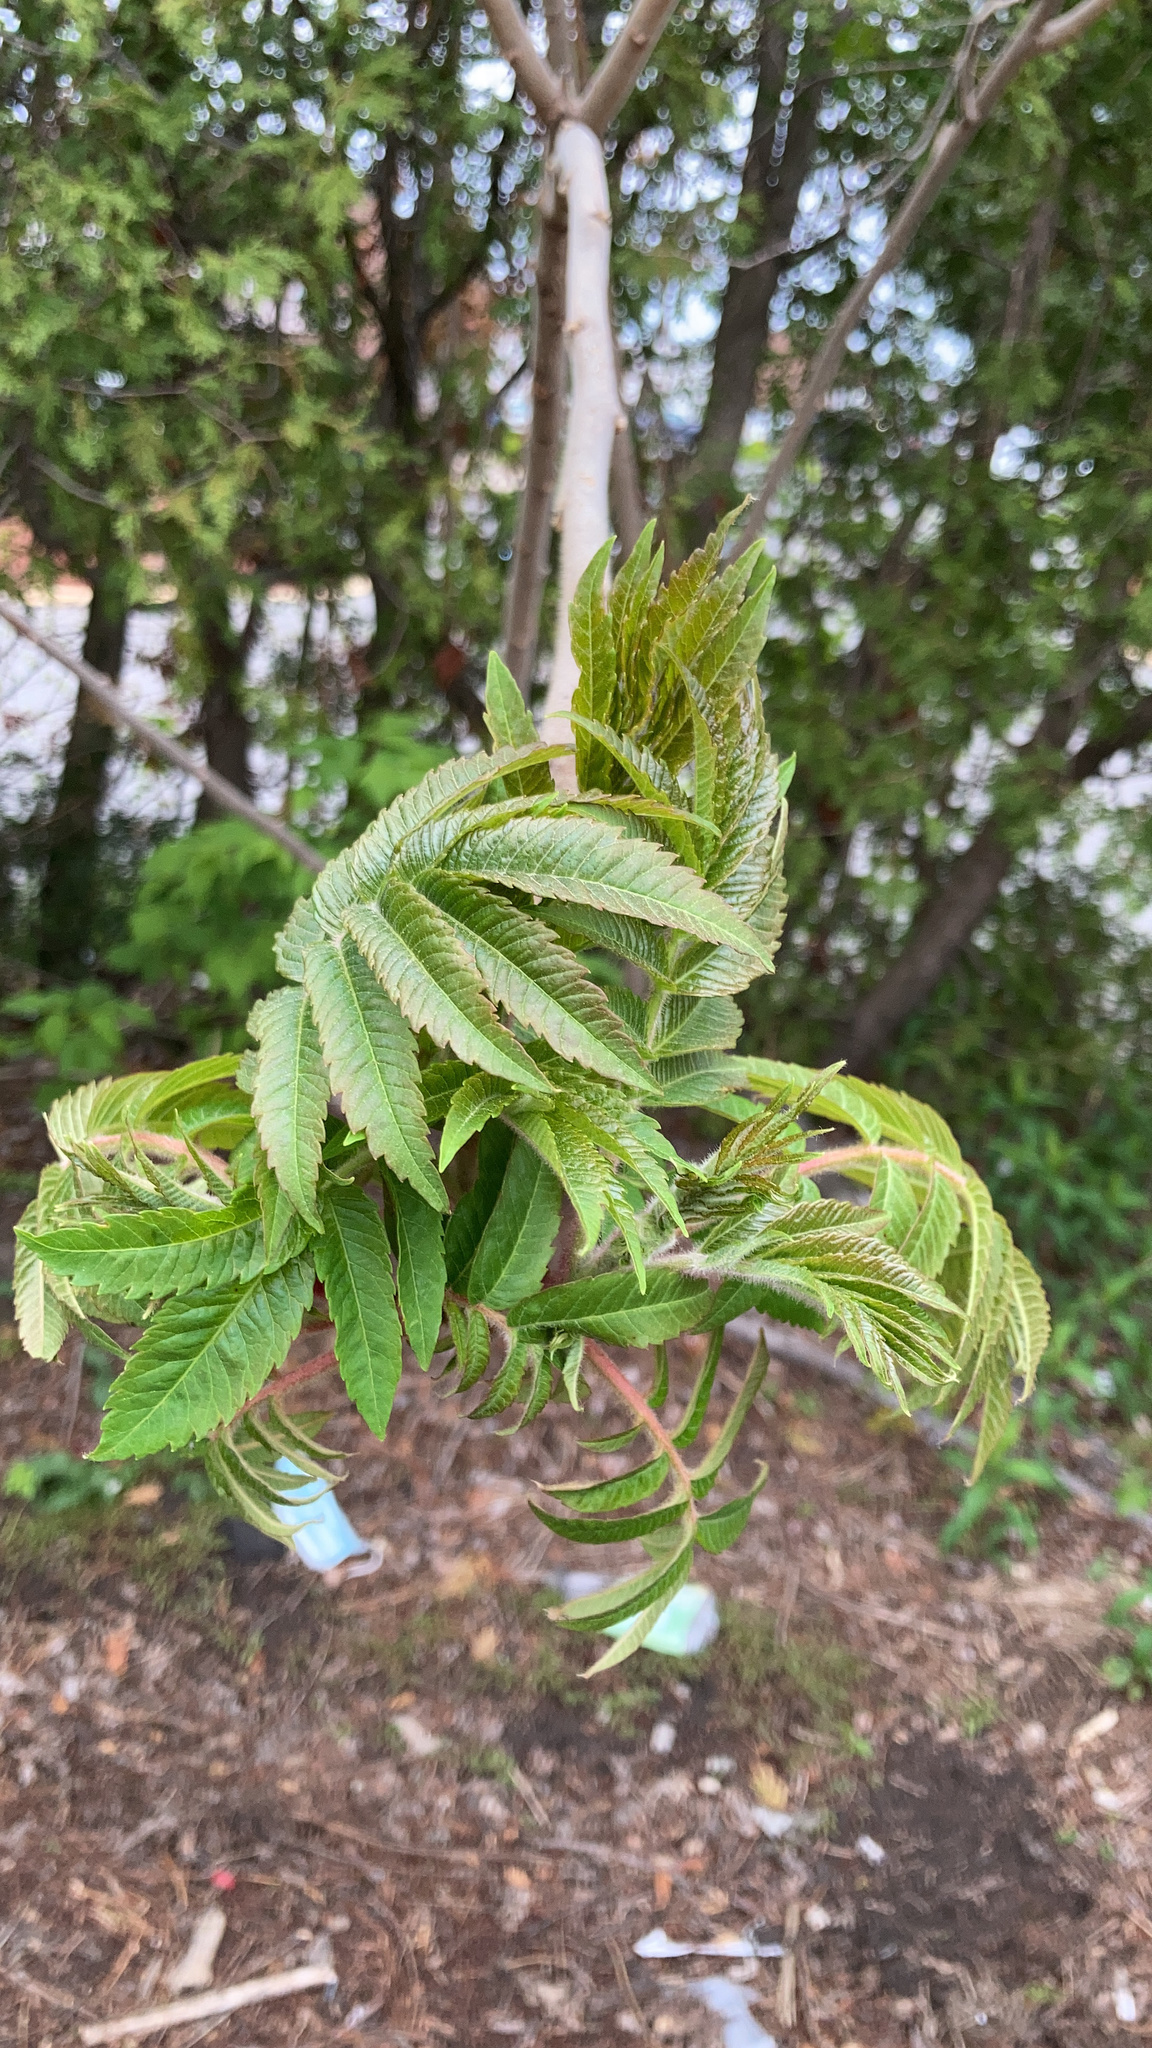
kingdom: Plantae
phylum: Tracheophyta
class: Magnoliopsida
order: Sapindales
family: Anacardiaceae
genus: Rhus
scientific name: Rhus typhina
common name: Staghorn sumac
